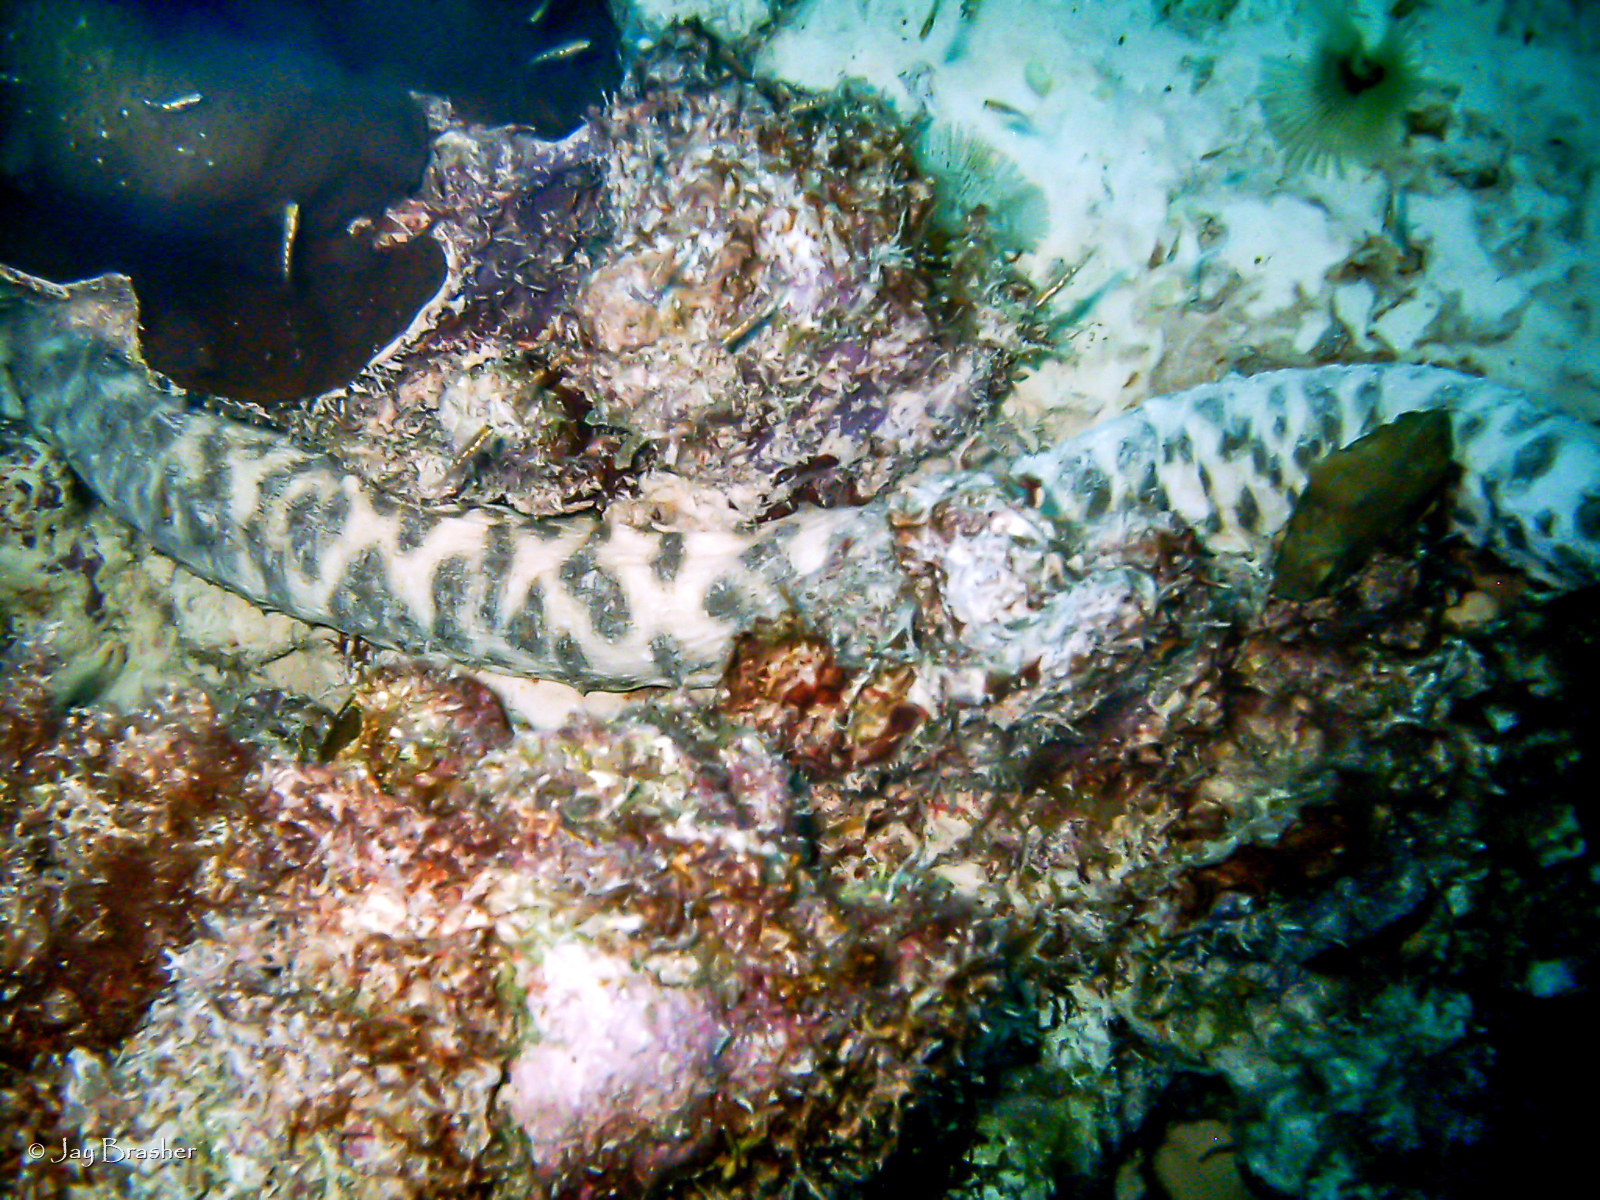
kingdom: Animalia
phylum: Echinodermata
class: Holothuroidea
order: Holothuriida
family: Holothuriidae
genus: Holothuria
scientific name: Holothuria thomasi
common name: Tiger tail sea cocumber
